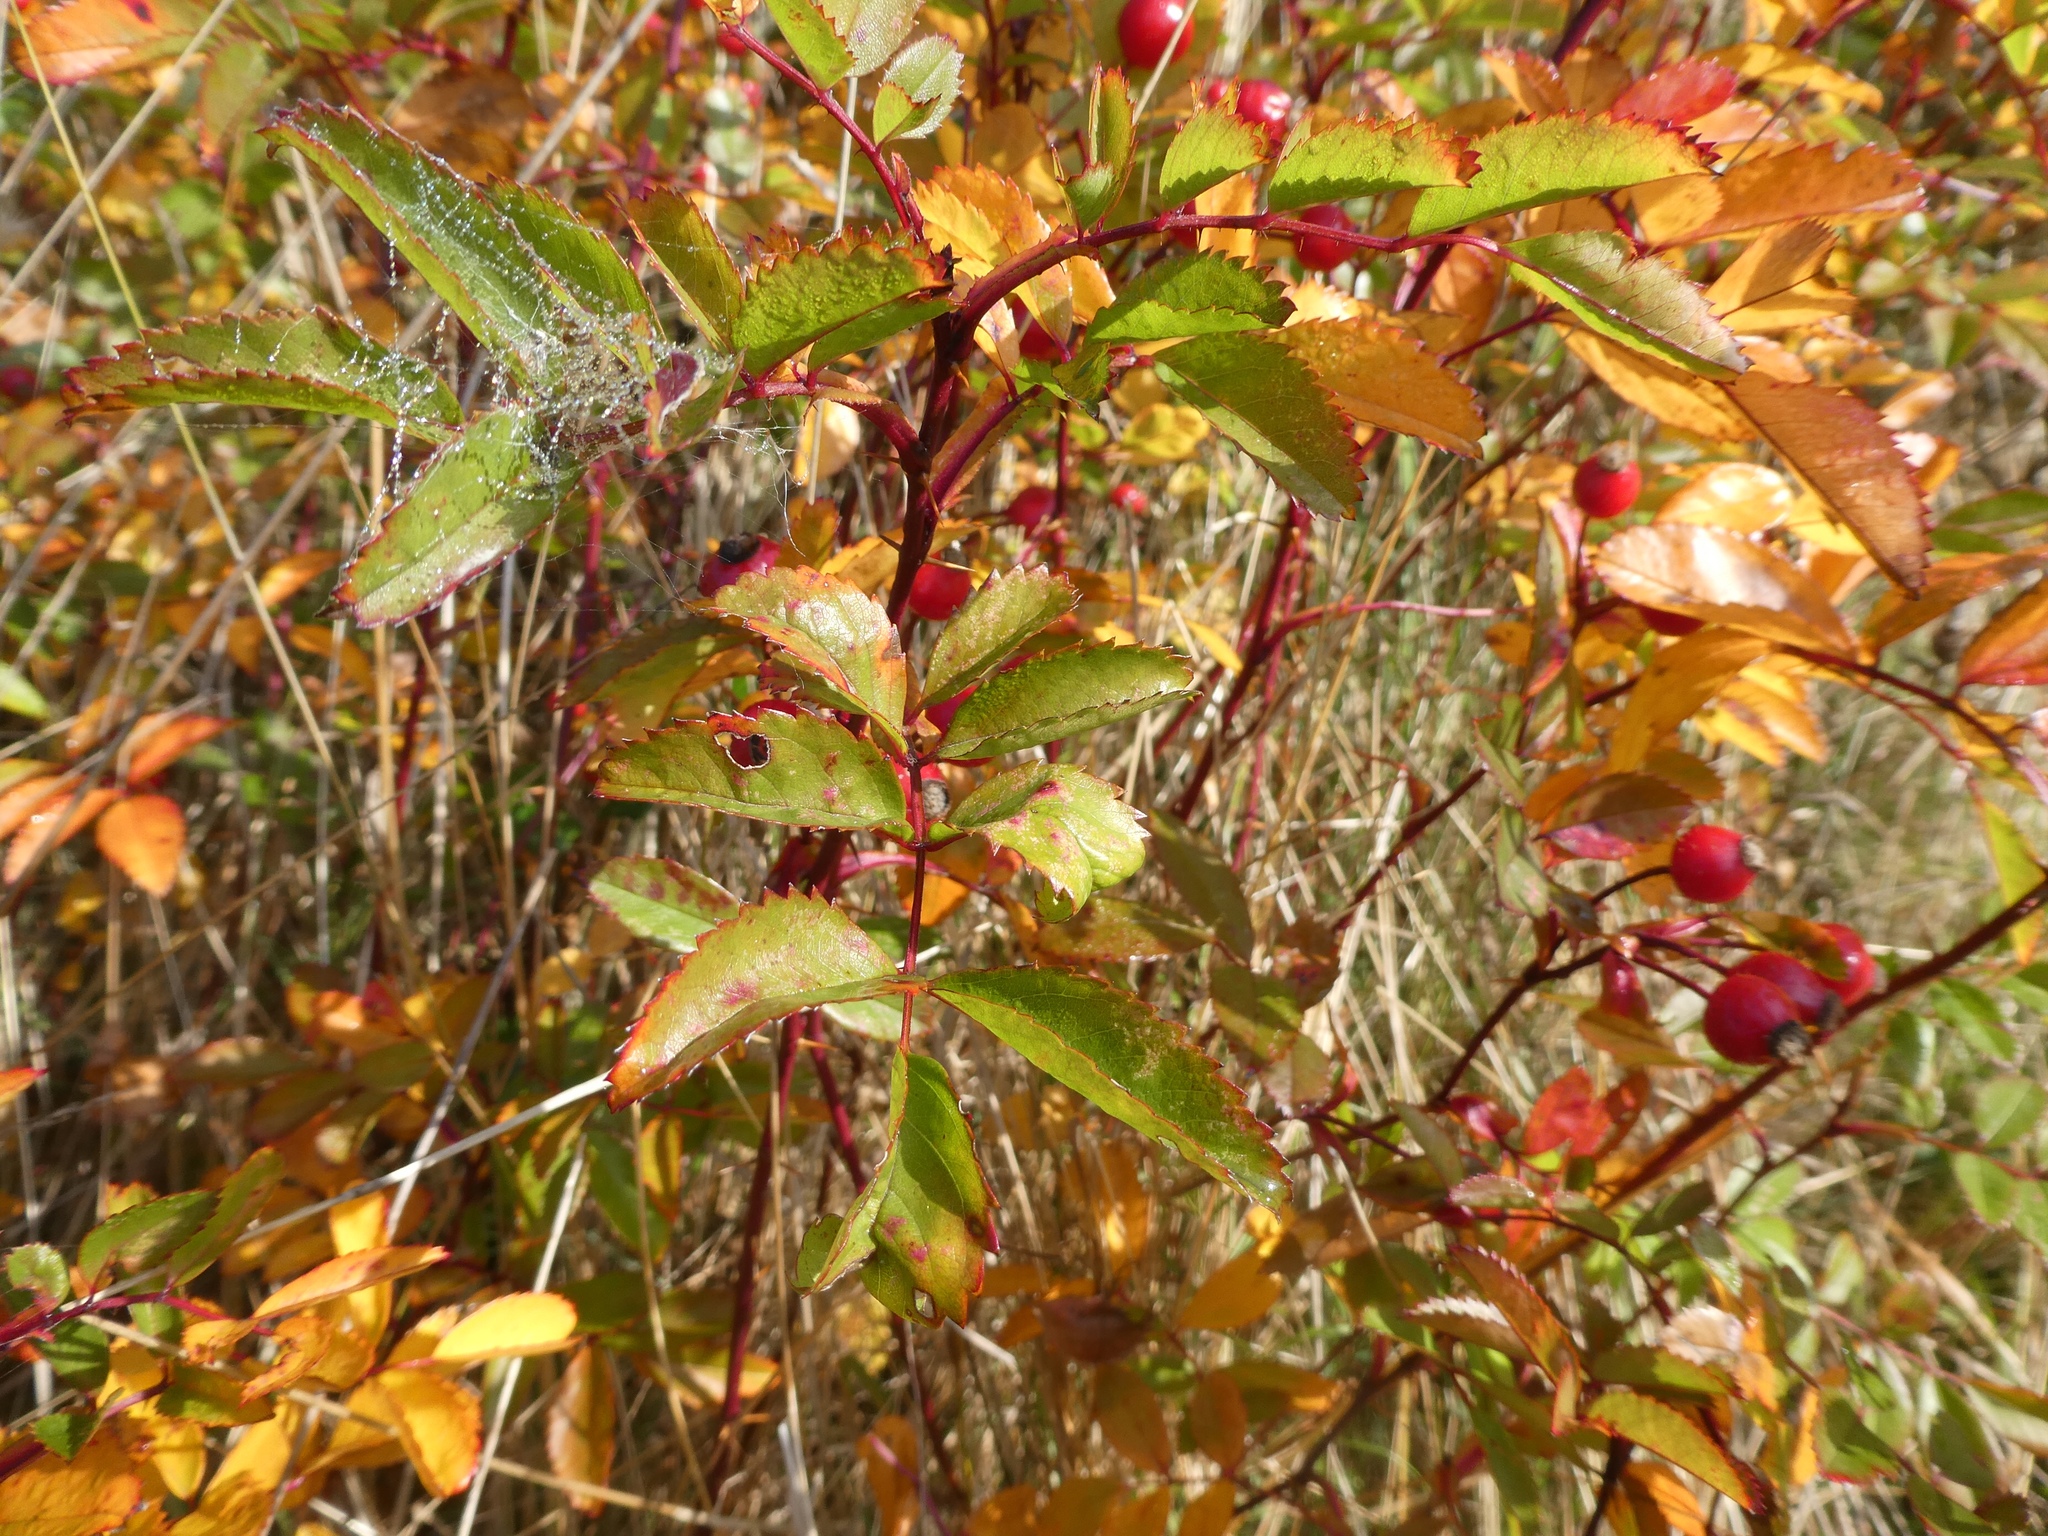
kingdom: Plantae
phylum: Tracheophyta
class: Magnoliopsida
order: Rosales
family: Rosaceae
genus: Rosa
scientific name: Rosa canina
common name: Dog rose
